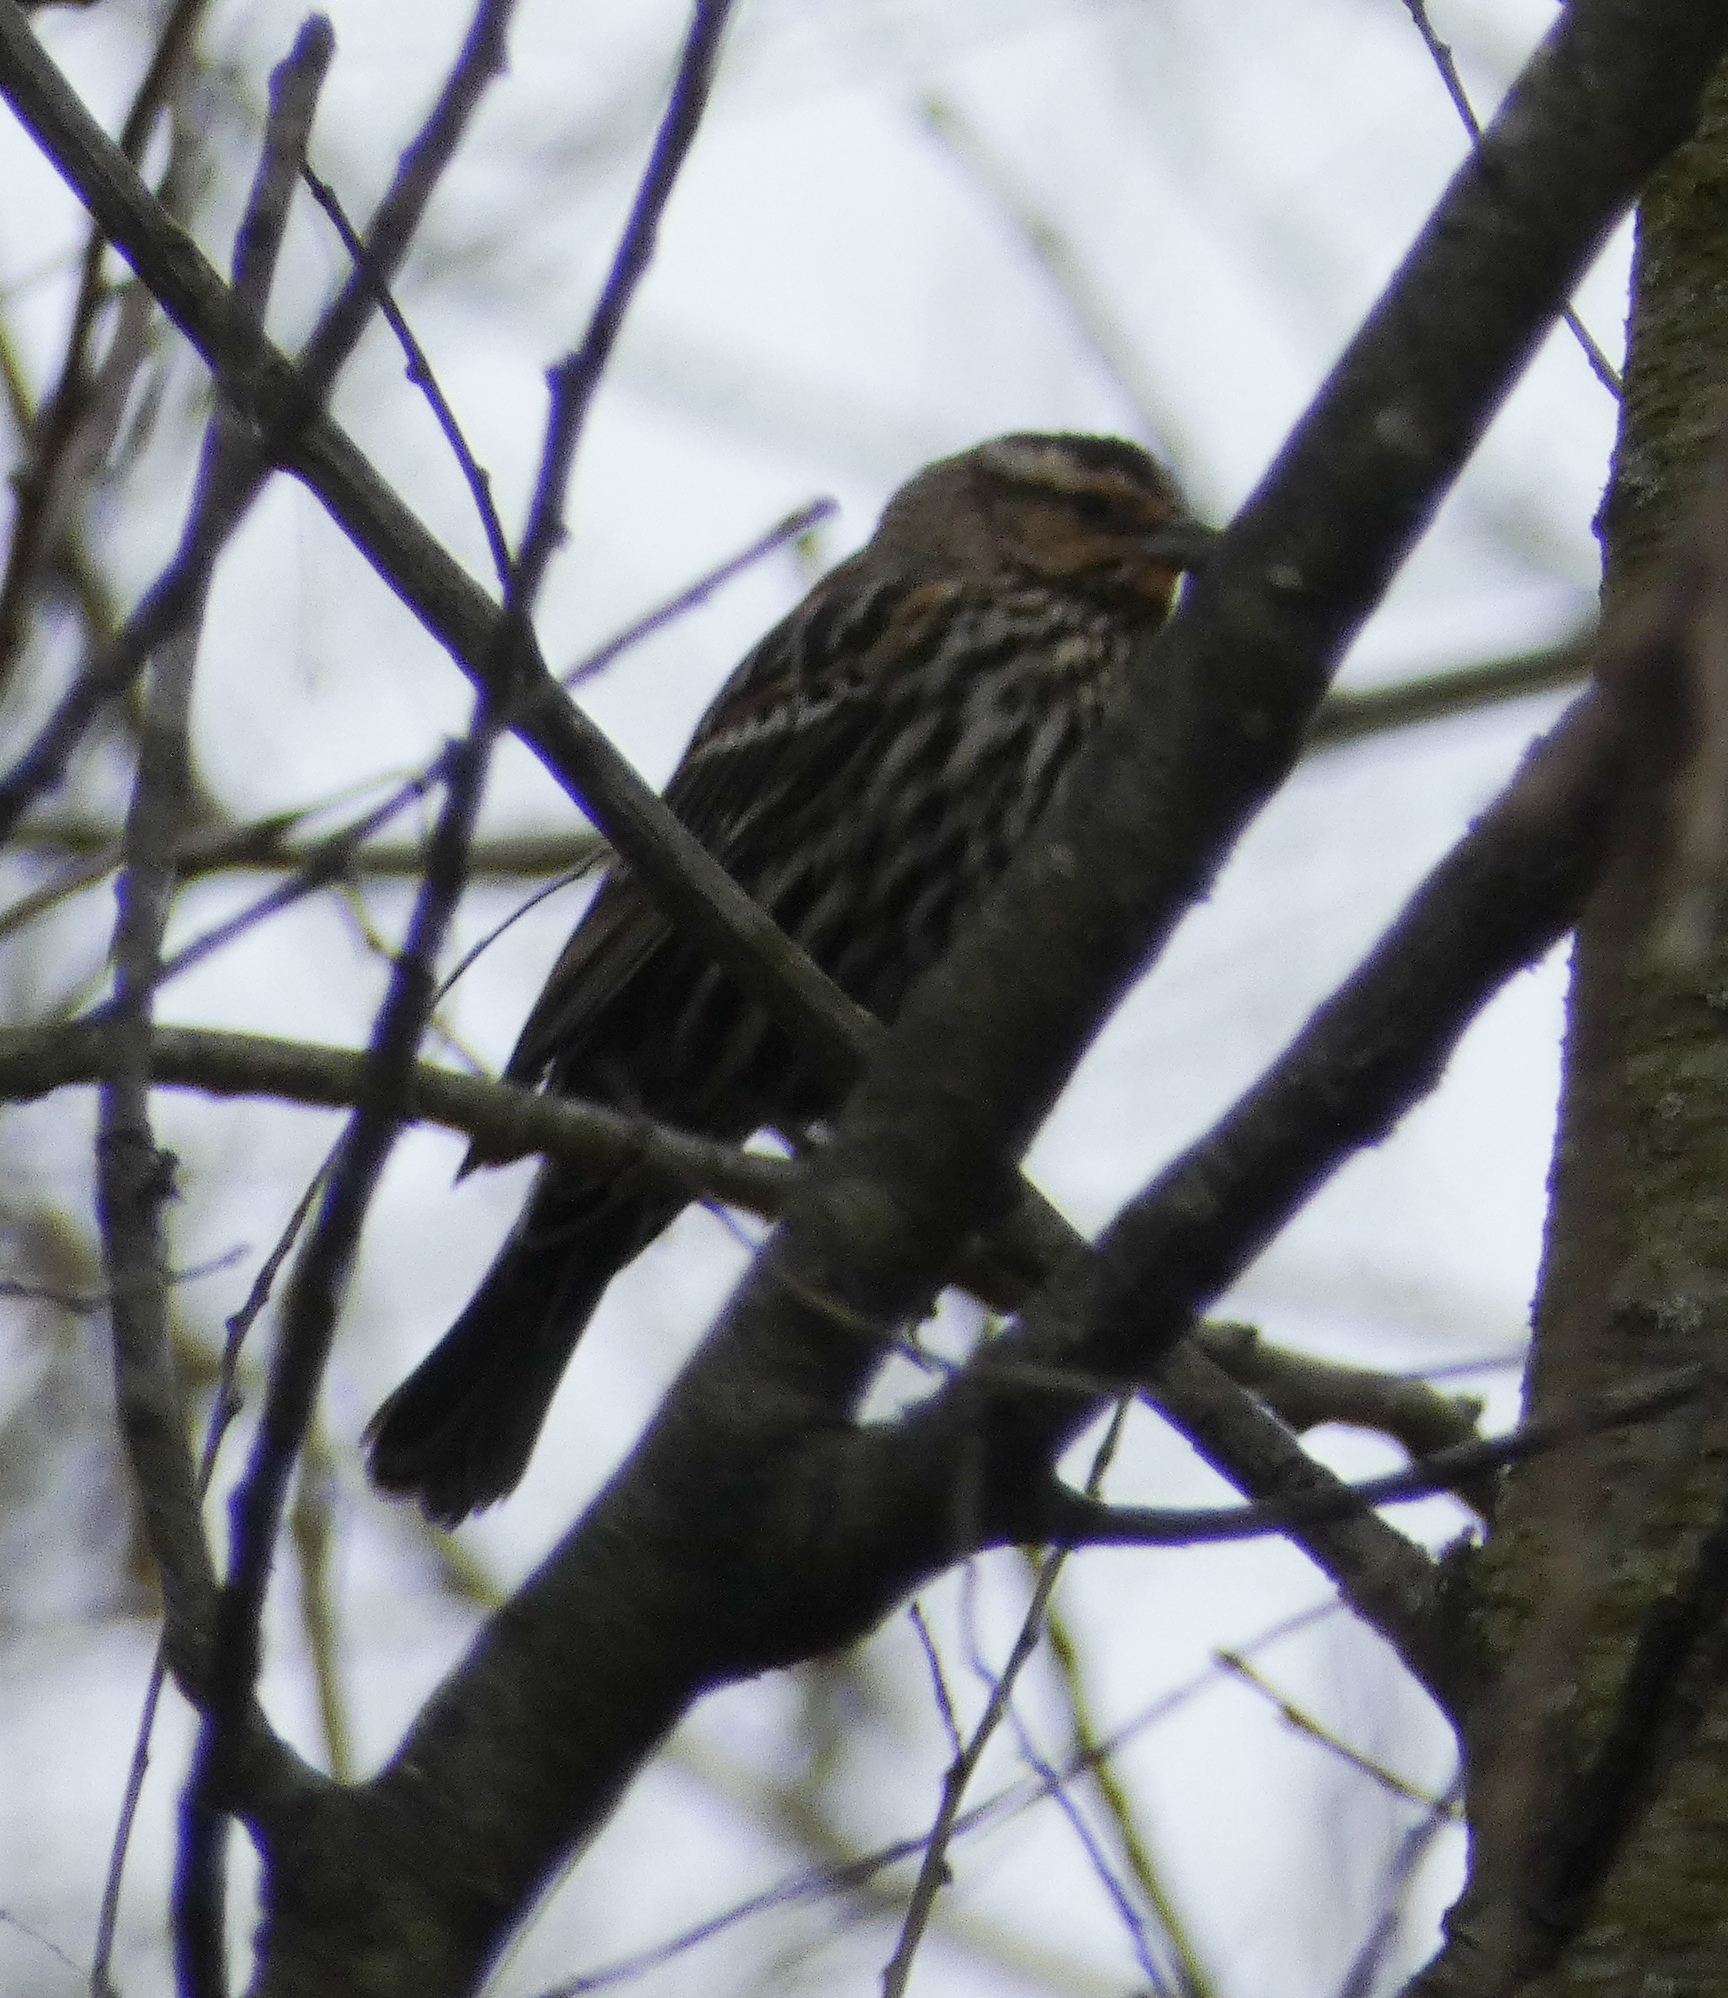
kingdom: Animalia
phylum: Chordata
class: Aves
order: Passeriformes
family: Icteridae
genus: Agelaius
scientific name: Agelaius phoeniceus
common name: Red-winged blackbird
